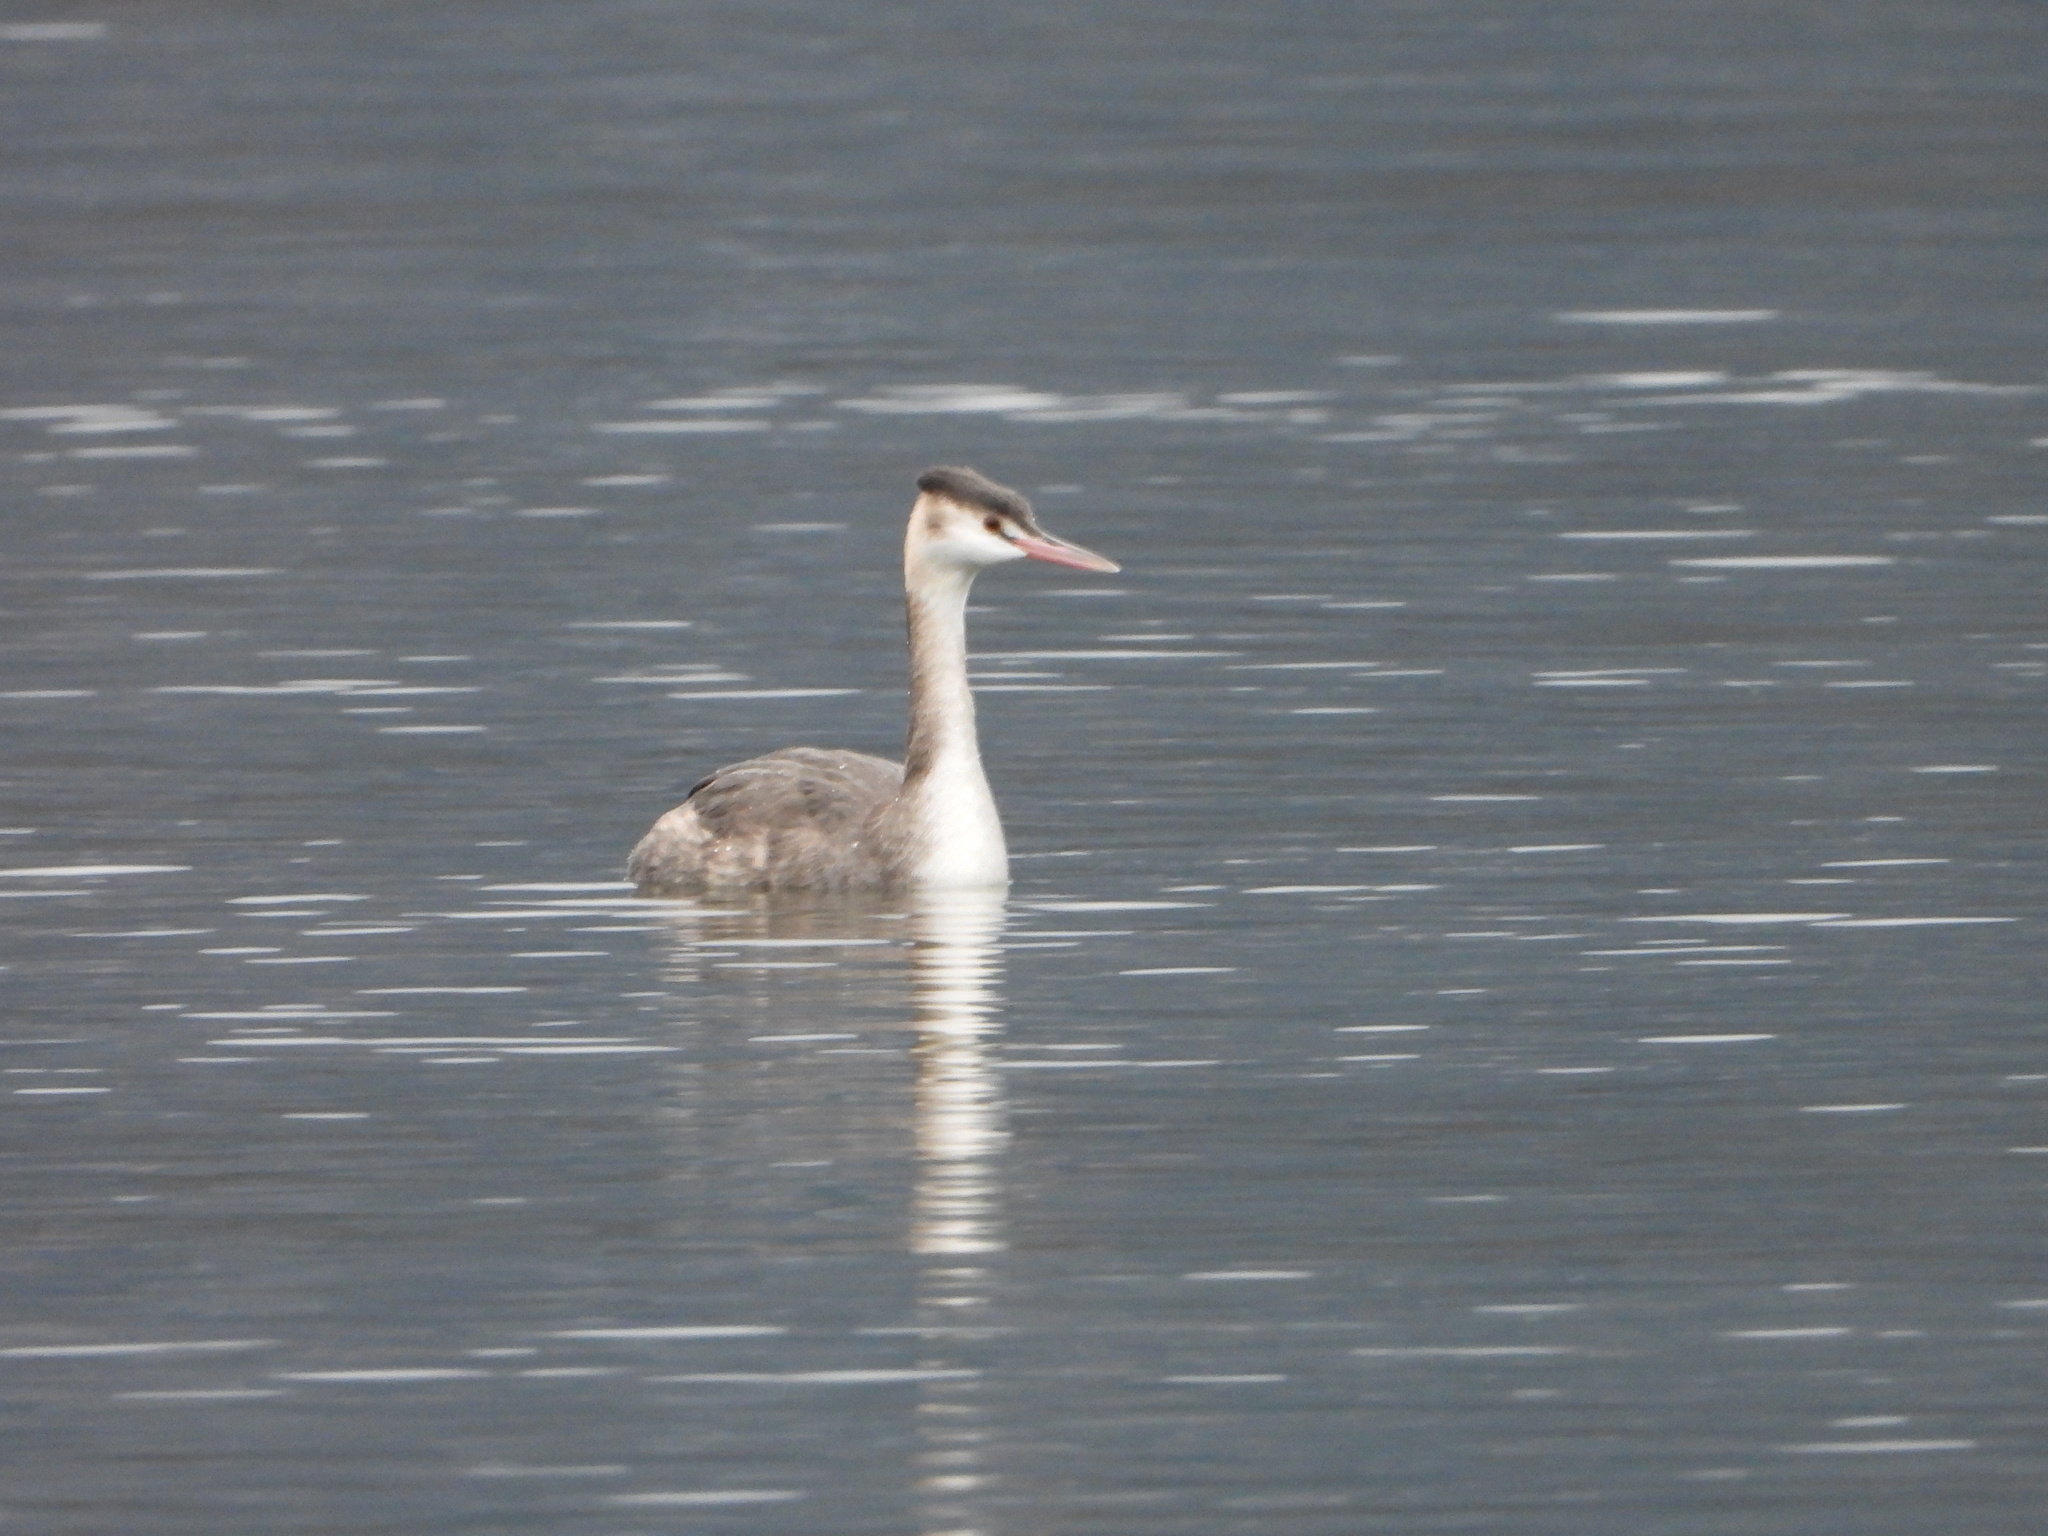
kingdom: Animalia
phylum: Chordata
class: Aves
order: Podicipediformes
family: Podicipedidae
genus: Podiceps
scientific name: Podiceps cristatus
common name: Great crested grebe
